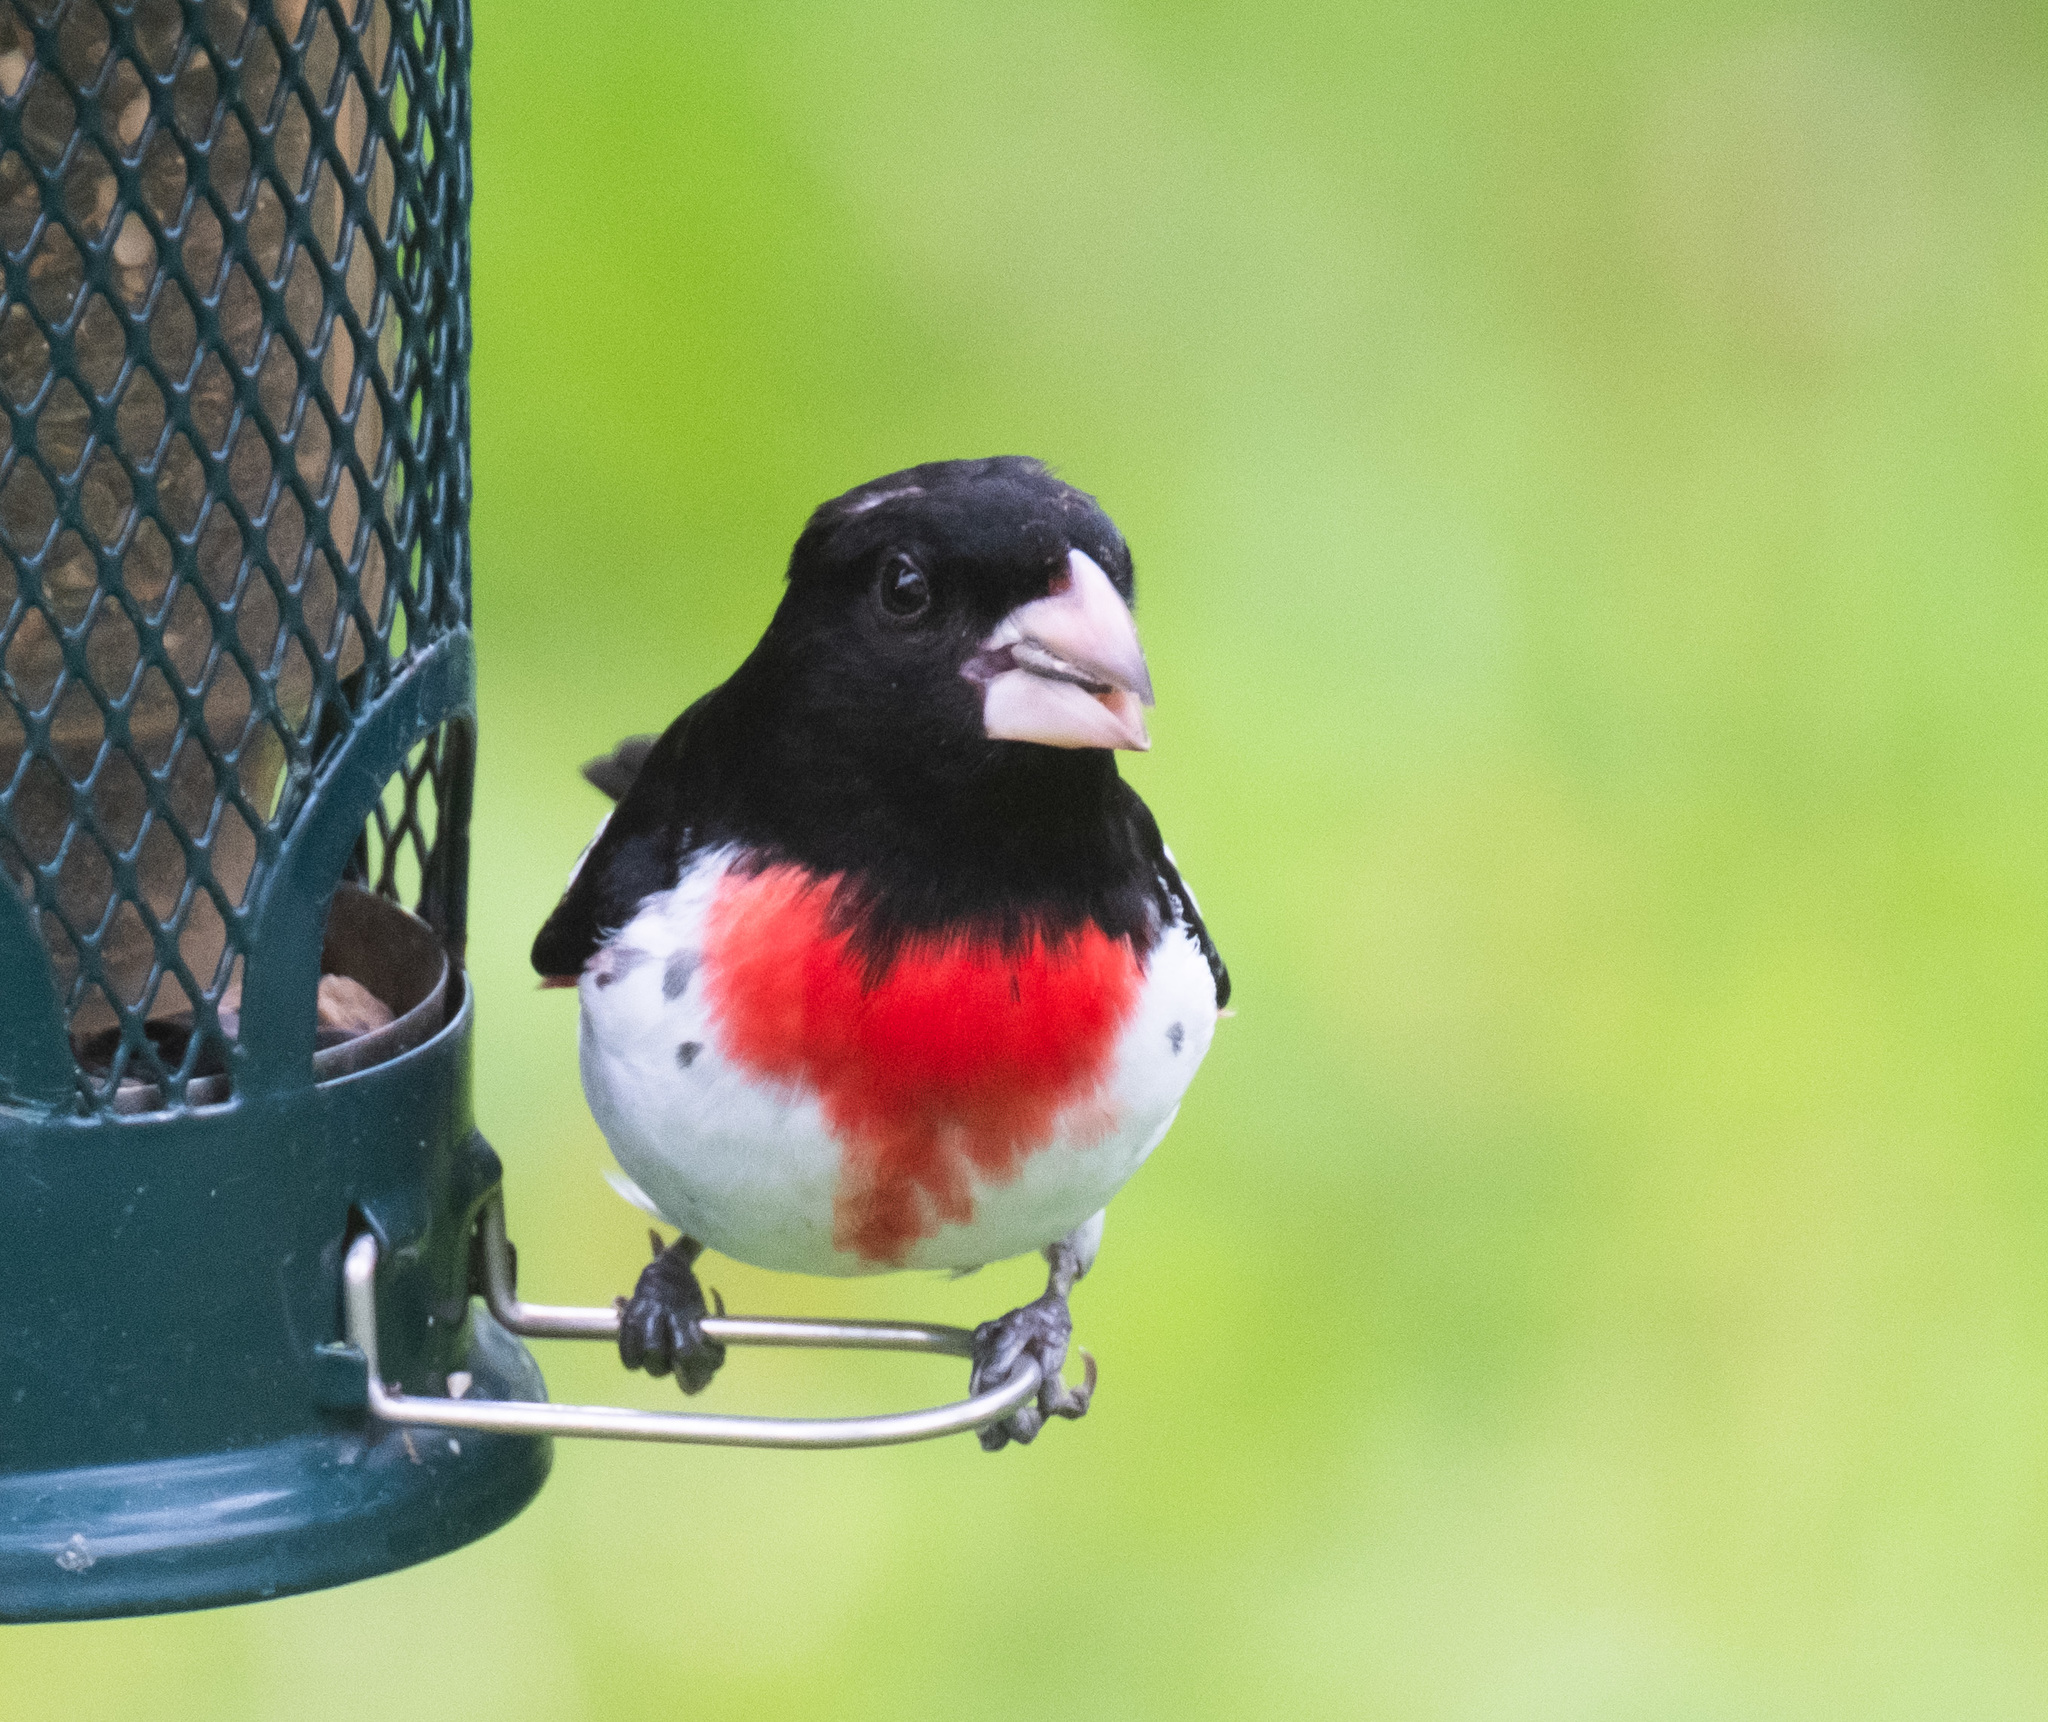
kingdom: Animalia
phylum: Chordata
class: Aves
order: Passeriformes
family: Cardinalidae
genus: Pheucticus
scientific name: Pheucticus ludovicianus
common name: Rose-breasted grosbeak
